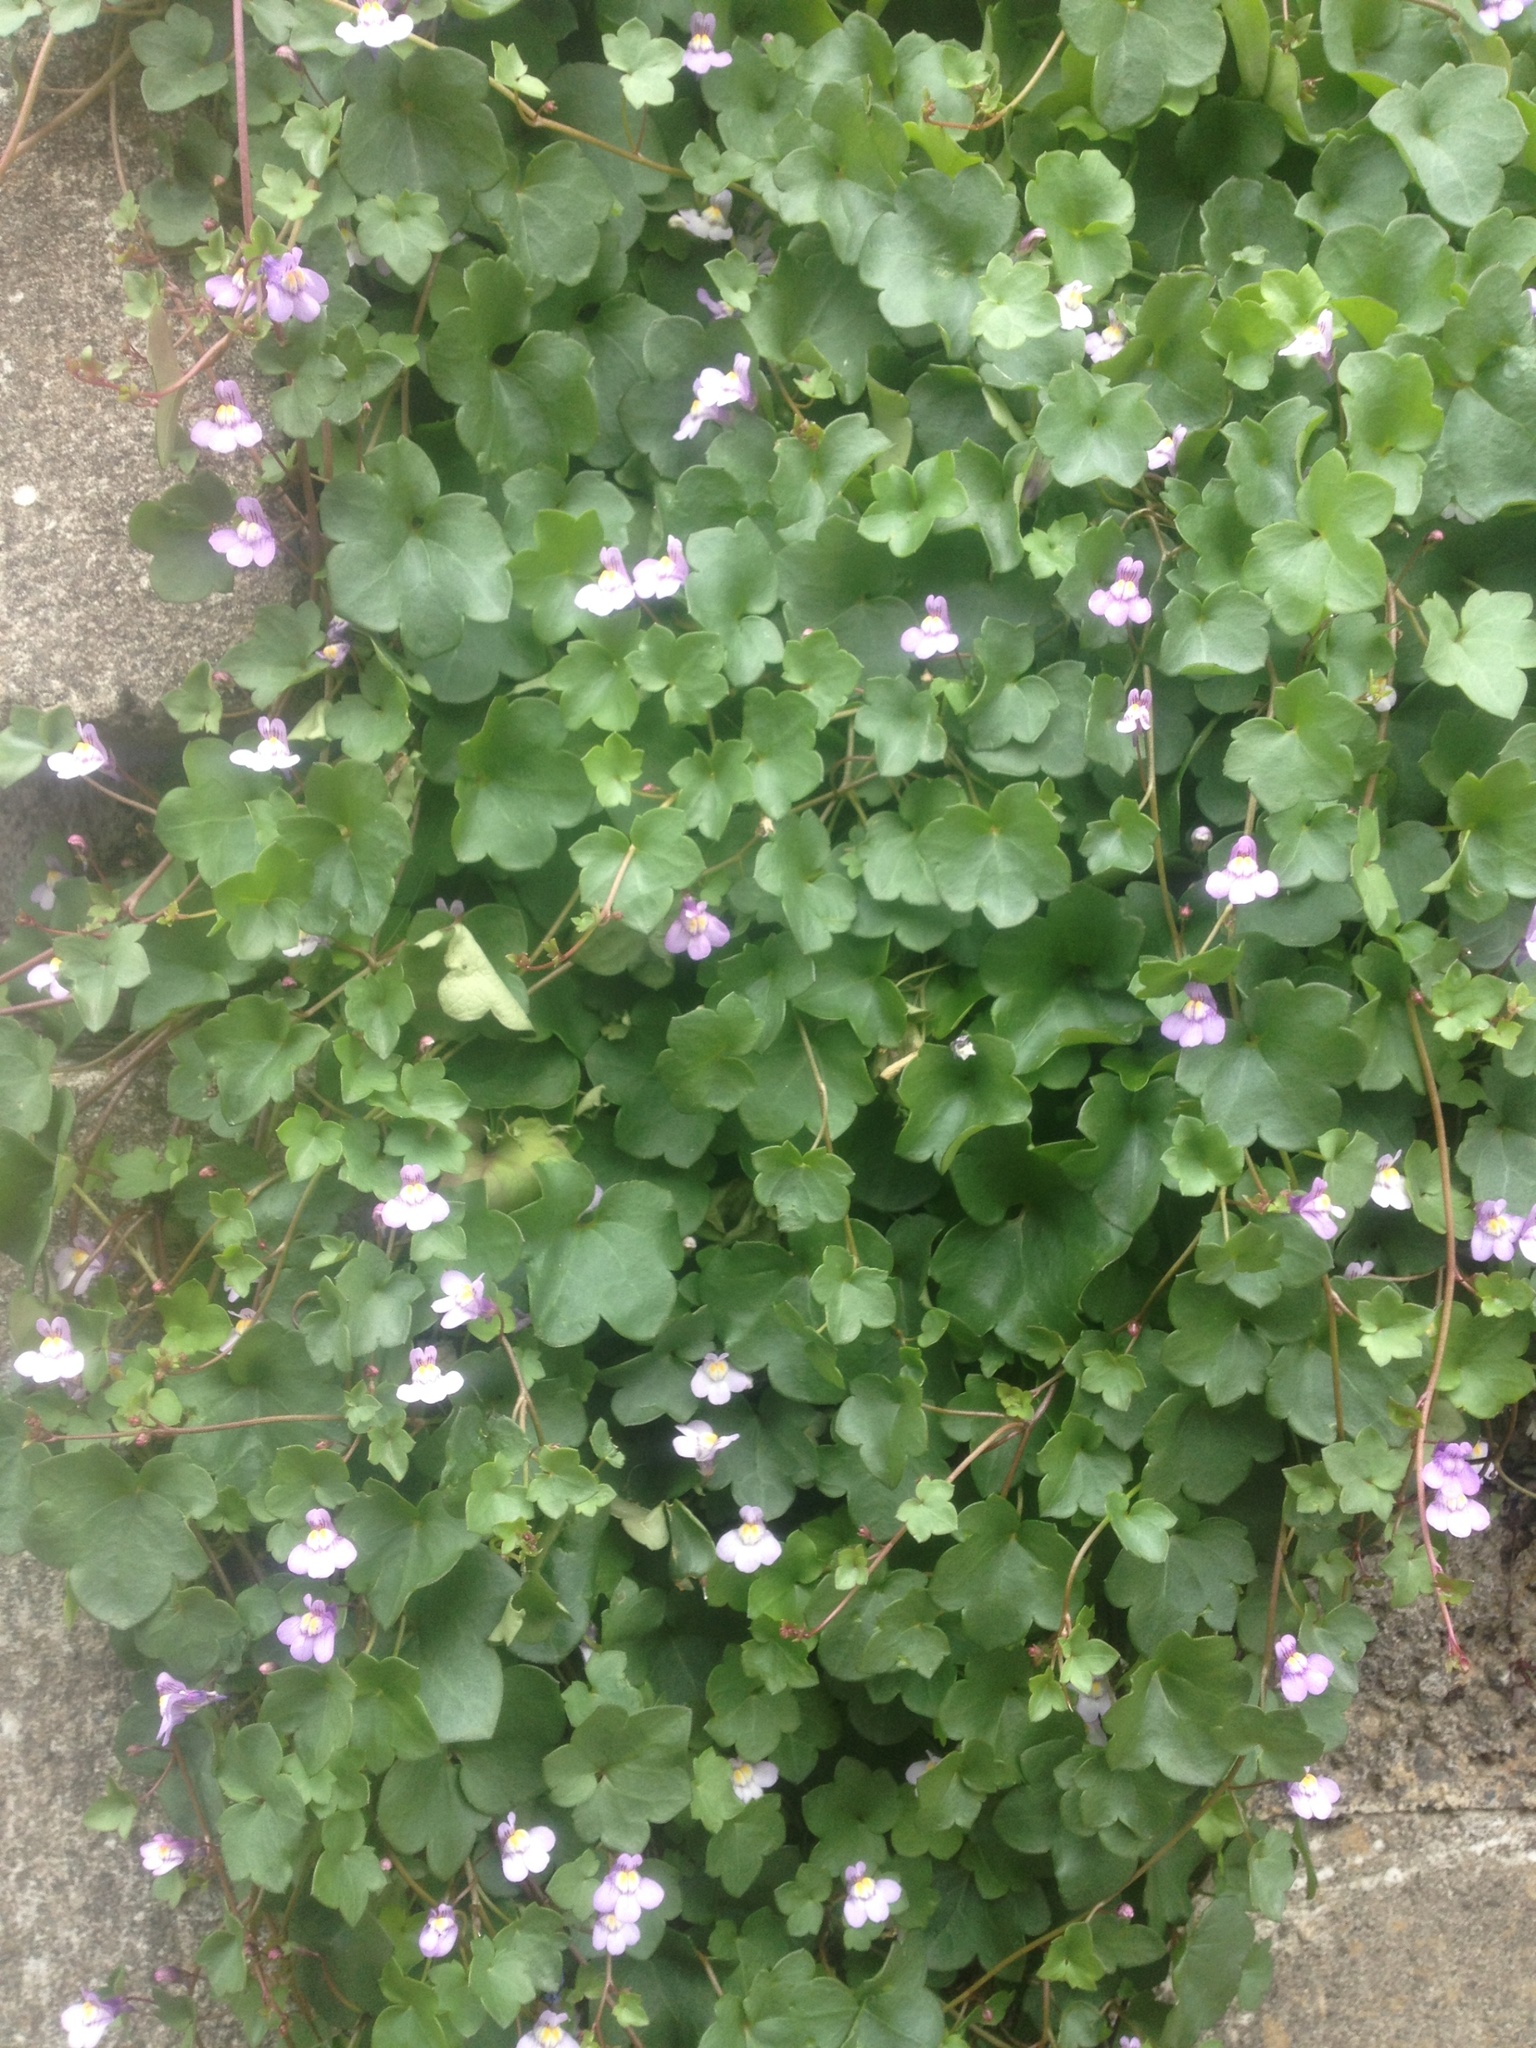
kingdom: Plantae
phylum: Tracheophyta
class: Magnoliopsida
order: Lamiales
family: Plantaginaceae
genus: Cymbalaria
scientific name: Cymbalaria muralis
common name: Ivy-leaved toadflax
